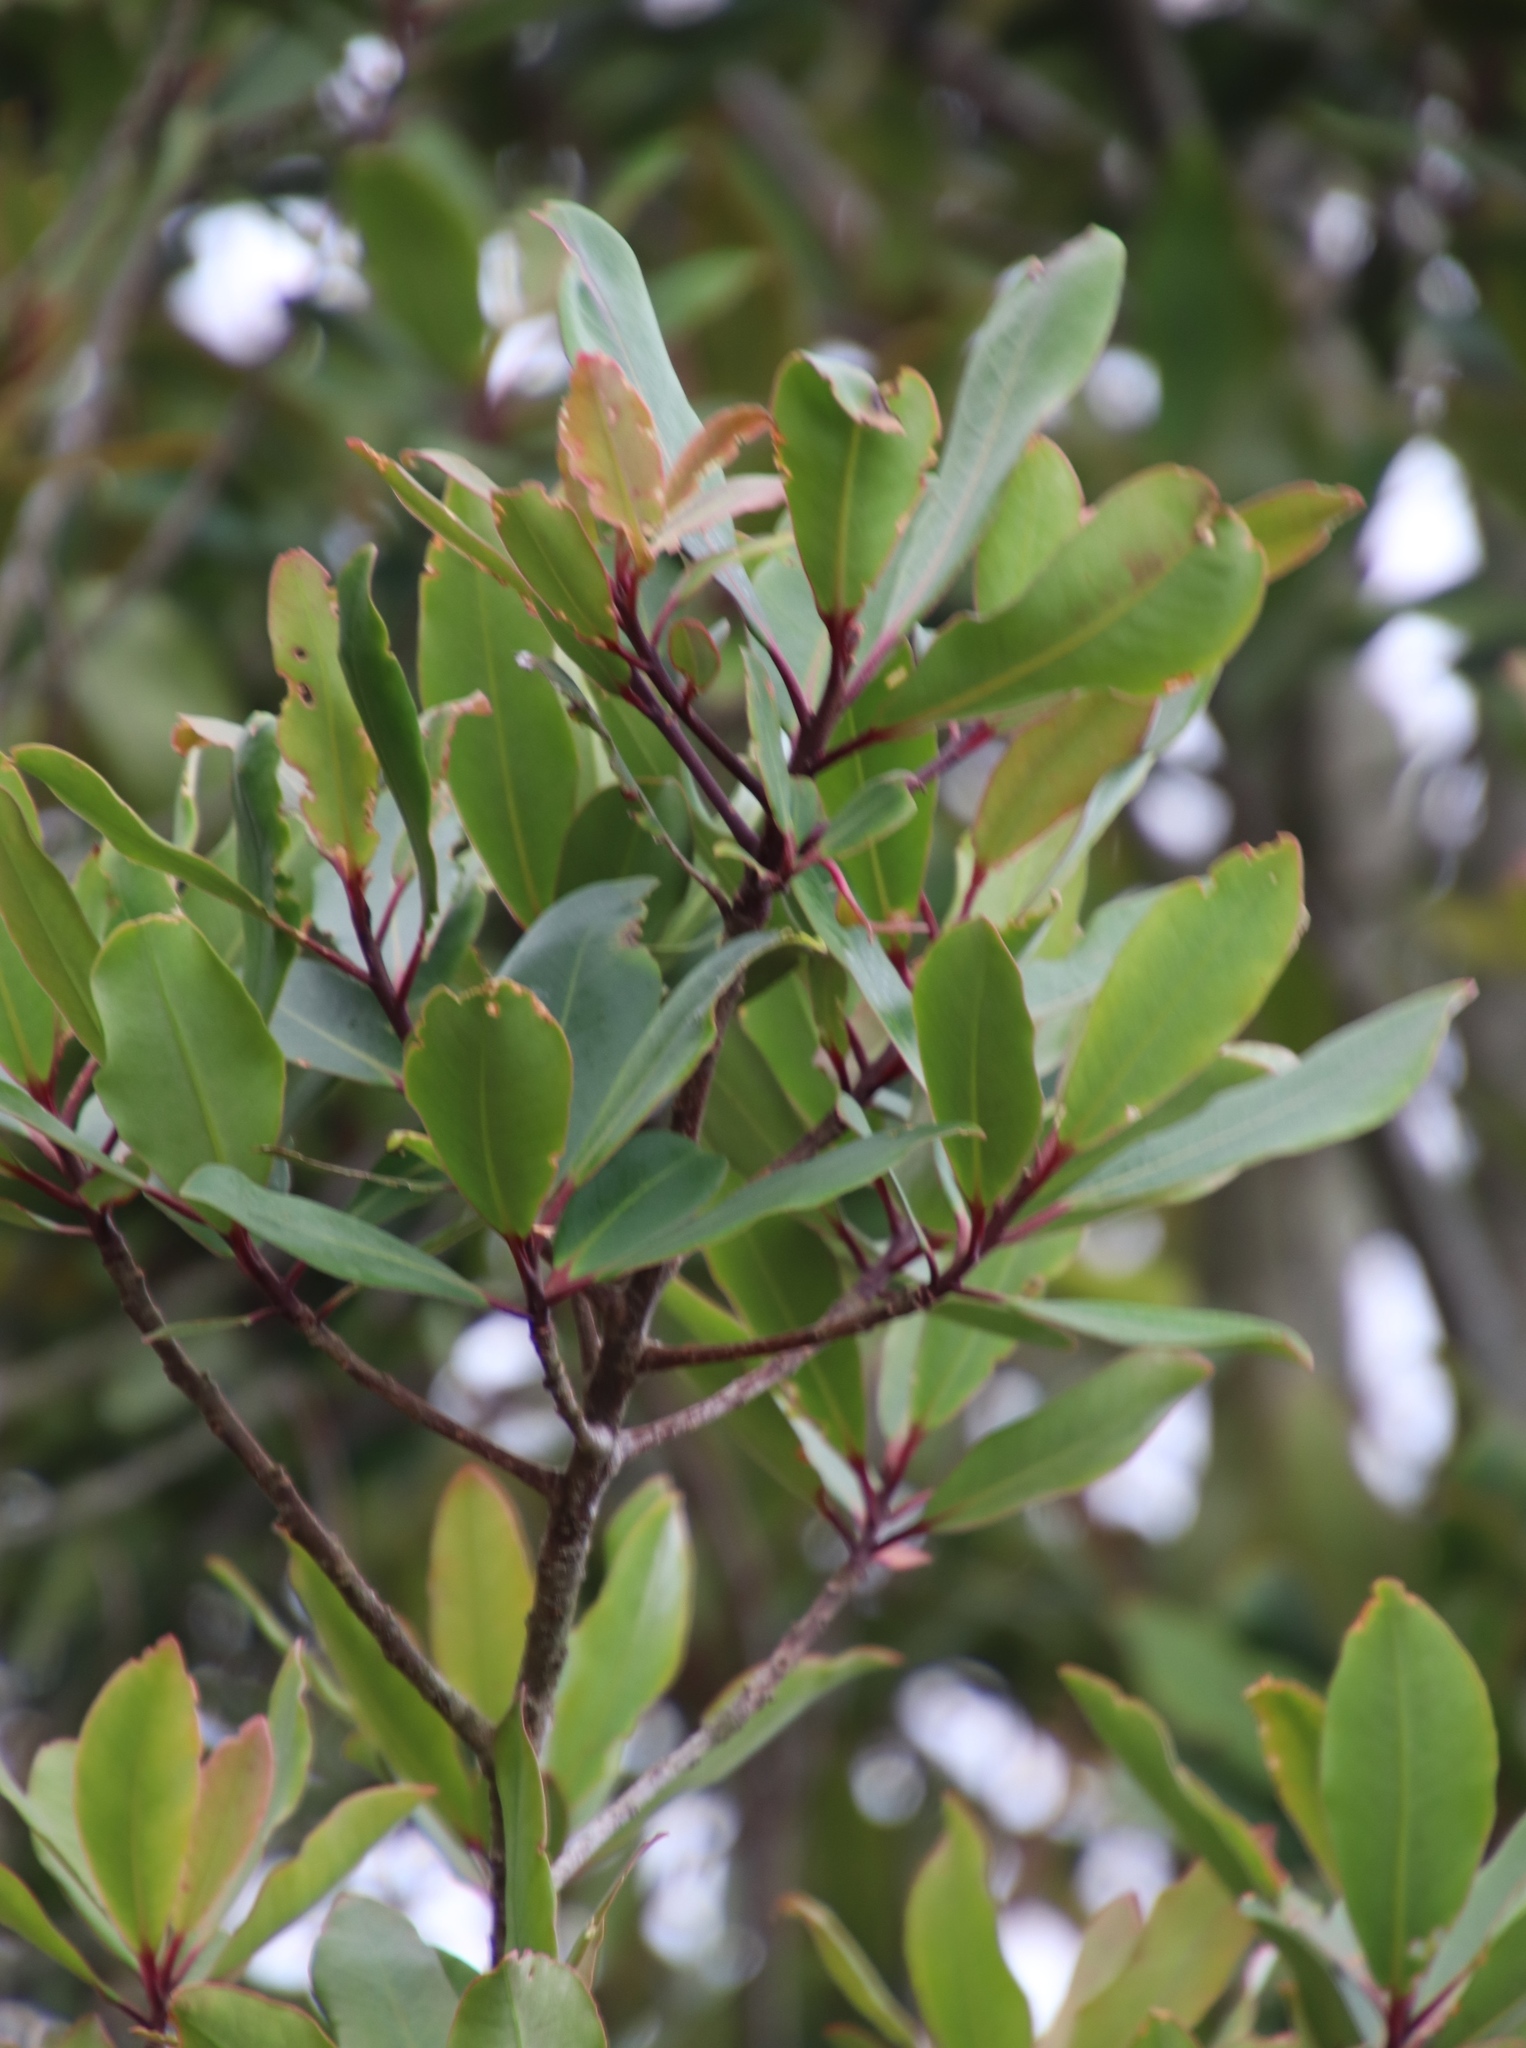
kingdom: Plantae
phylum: Tracheophyta
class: Magnoliopsida
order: Ericales
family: Primulaceae
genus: Myrsine
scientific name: Myrsine melanophloeos
